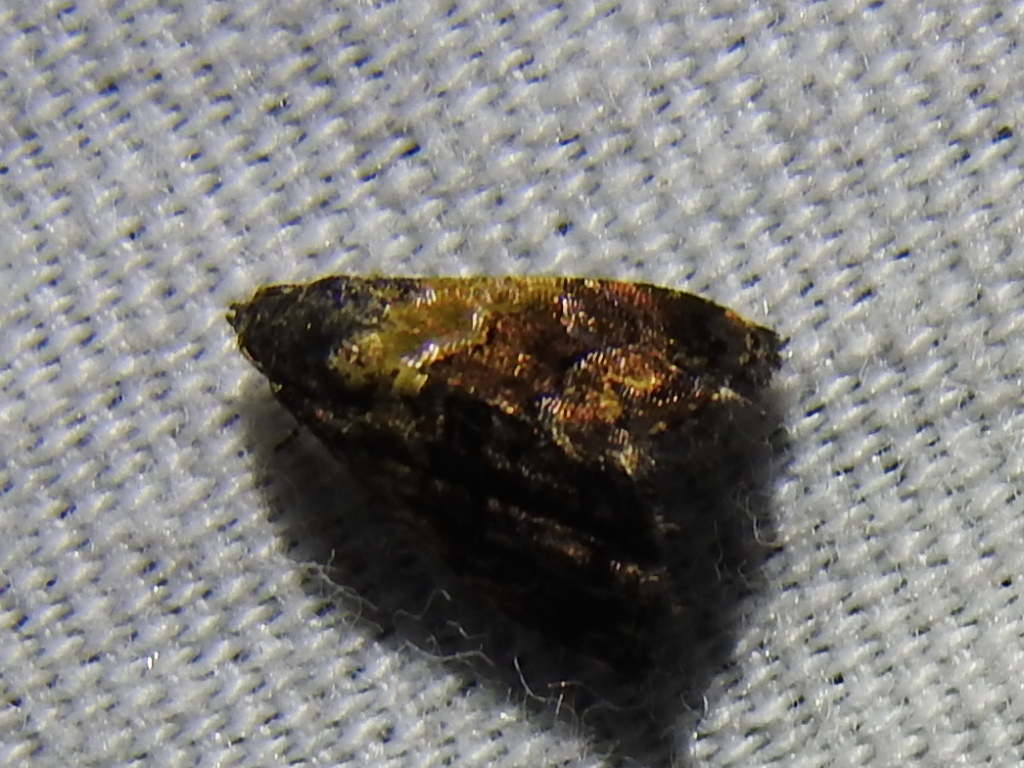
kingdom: Animalia
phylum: Arthropoda
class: Insecta
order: Lepidoptera
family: Noctuidae
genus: Tripudia
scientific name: Tripudia flavofasciata
